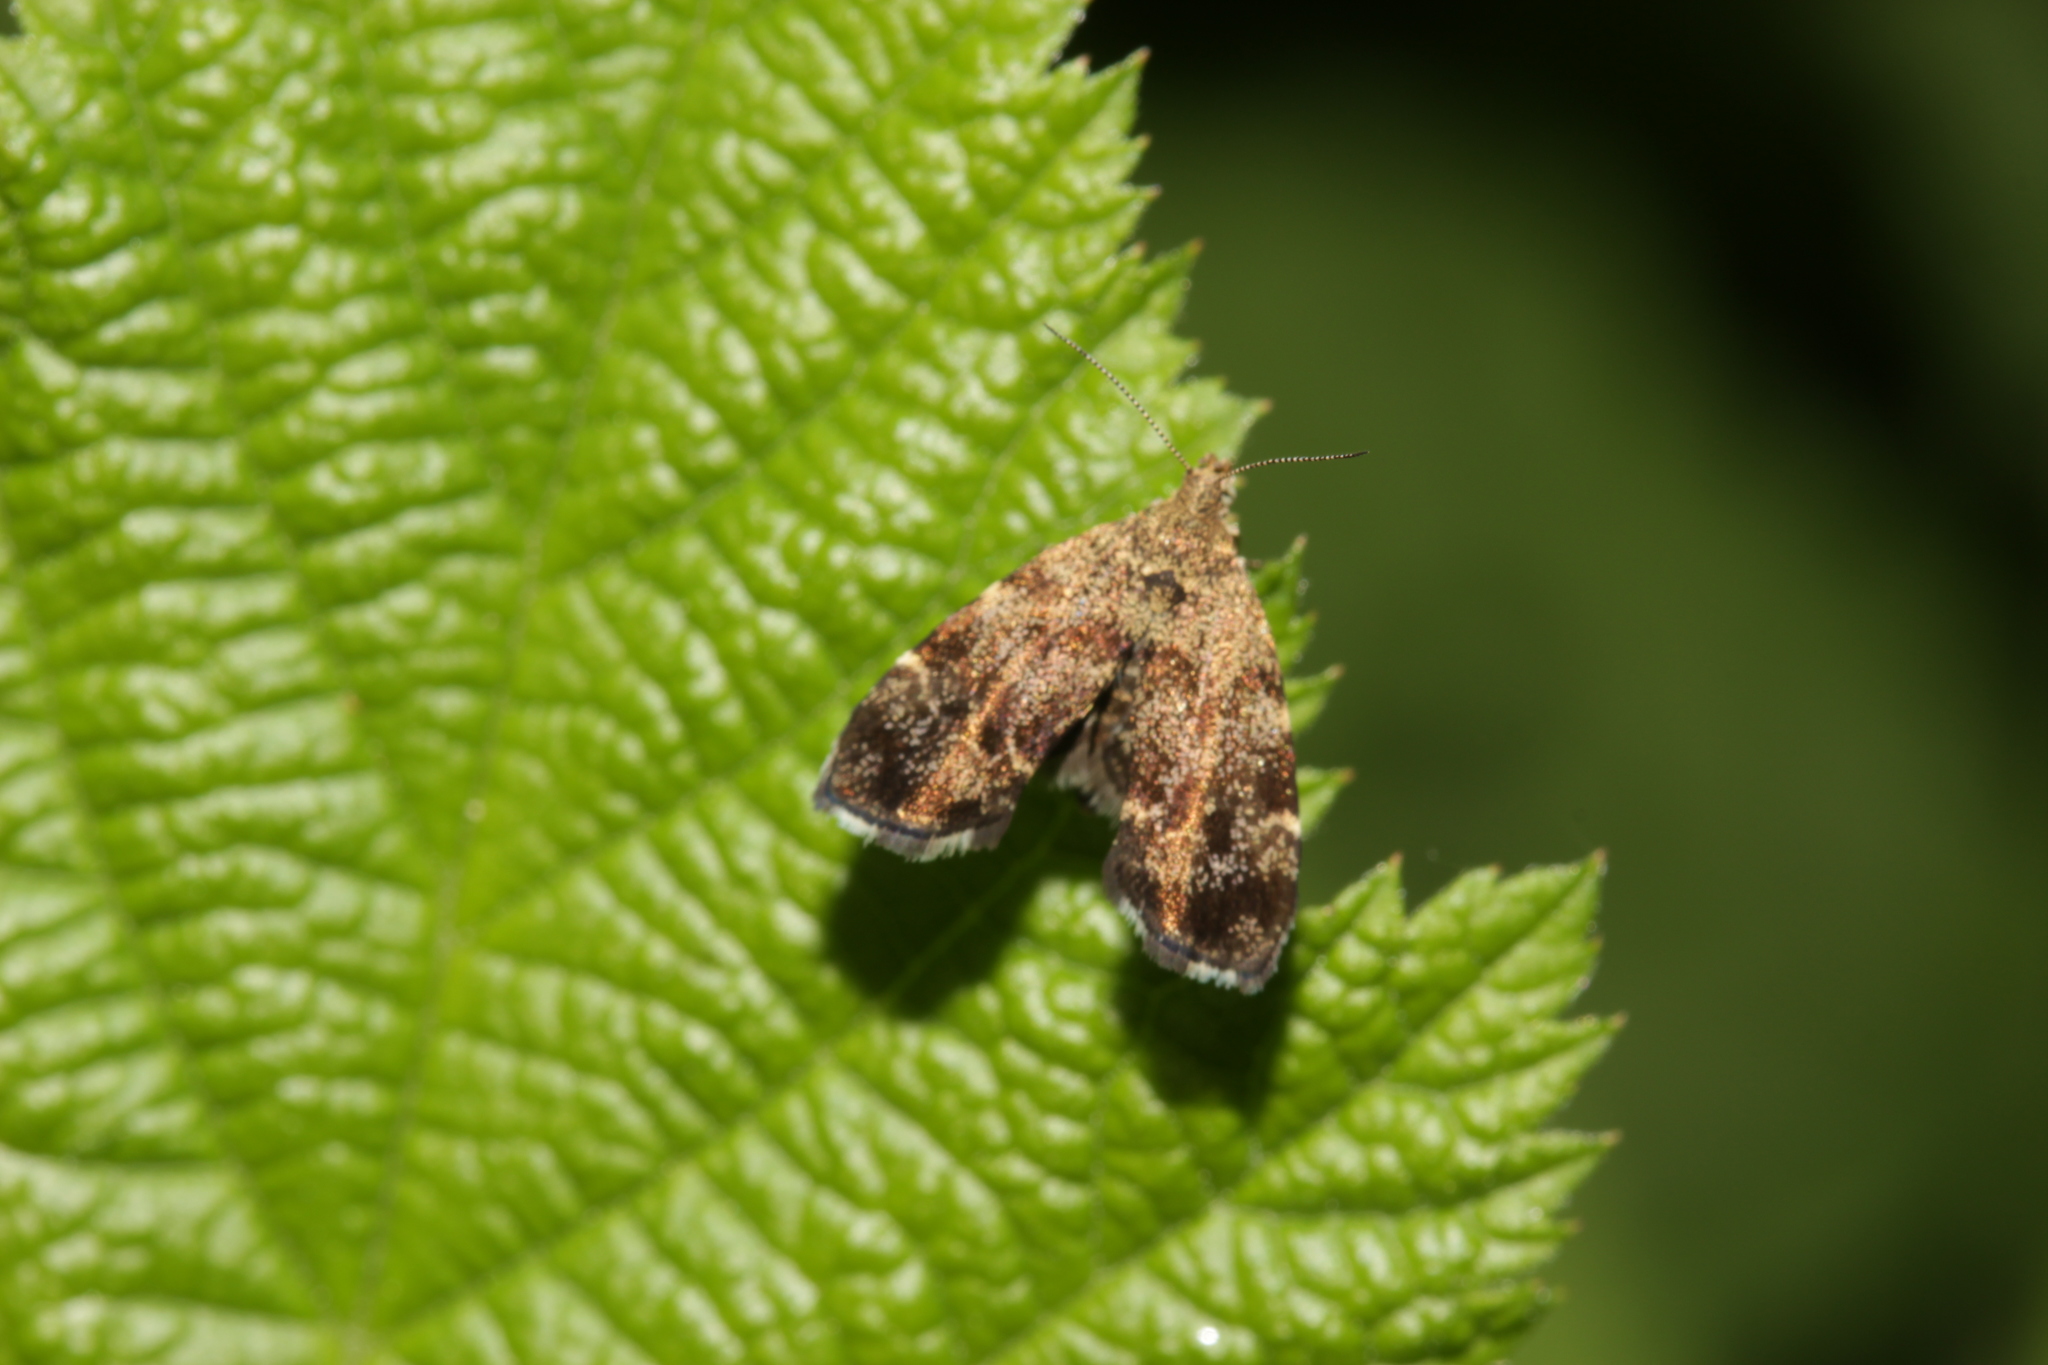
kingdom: Animalia
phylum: Arthropoda
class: Insecta
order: Lepidoptera
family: Choreutidae
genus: Anthophila
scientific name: Anthophila fabriciana
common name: Nettle-tap
